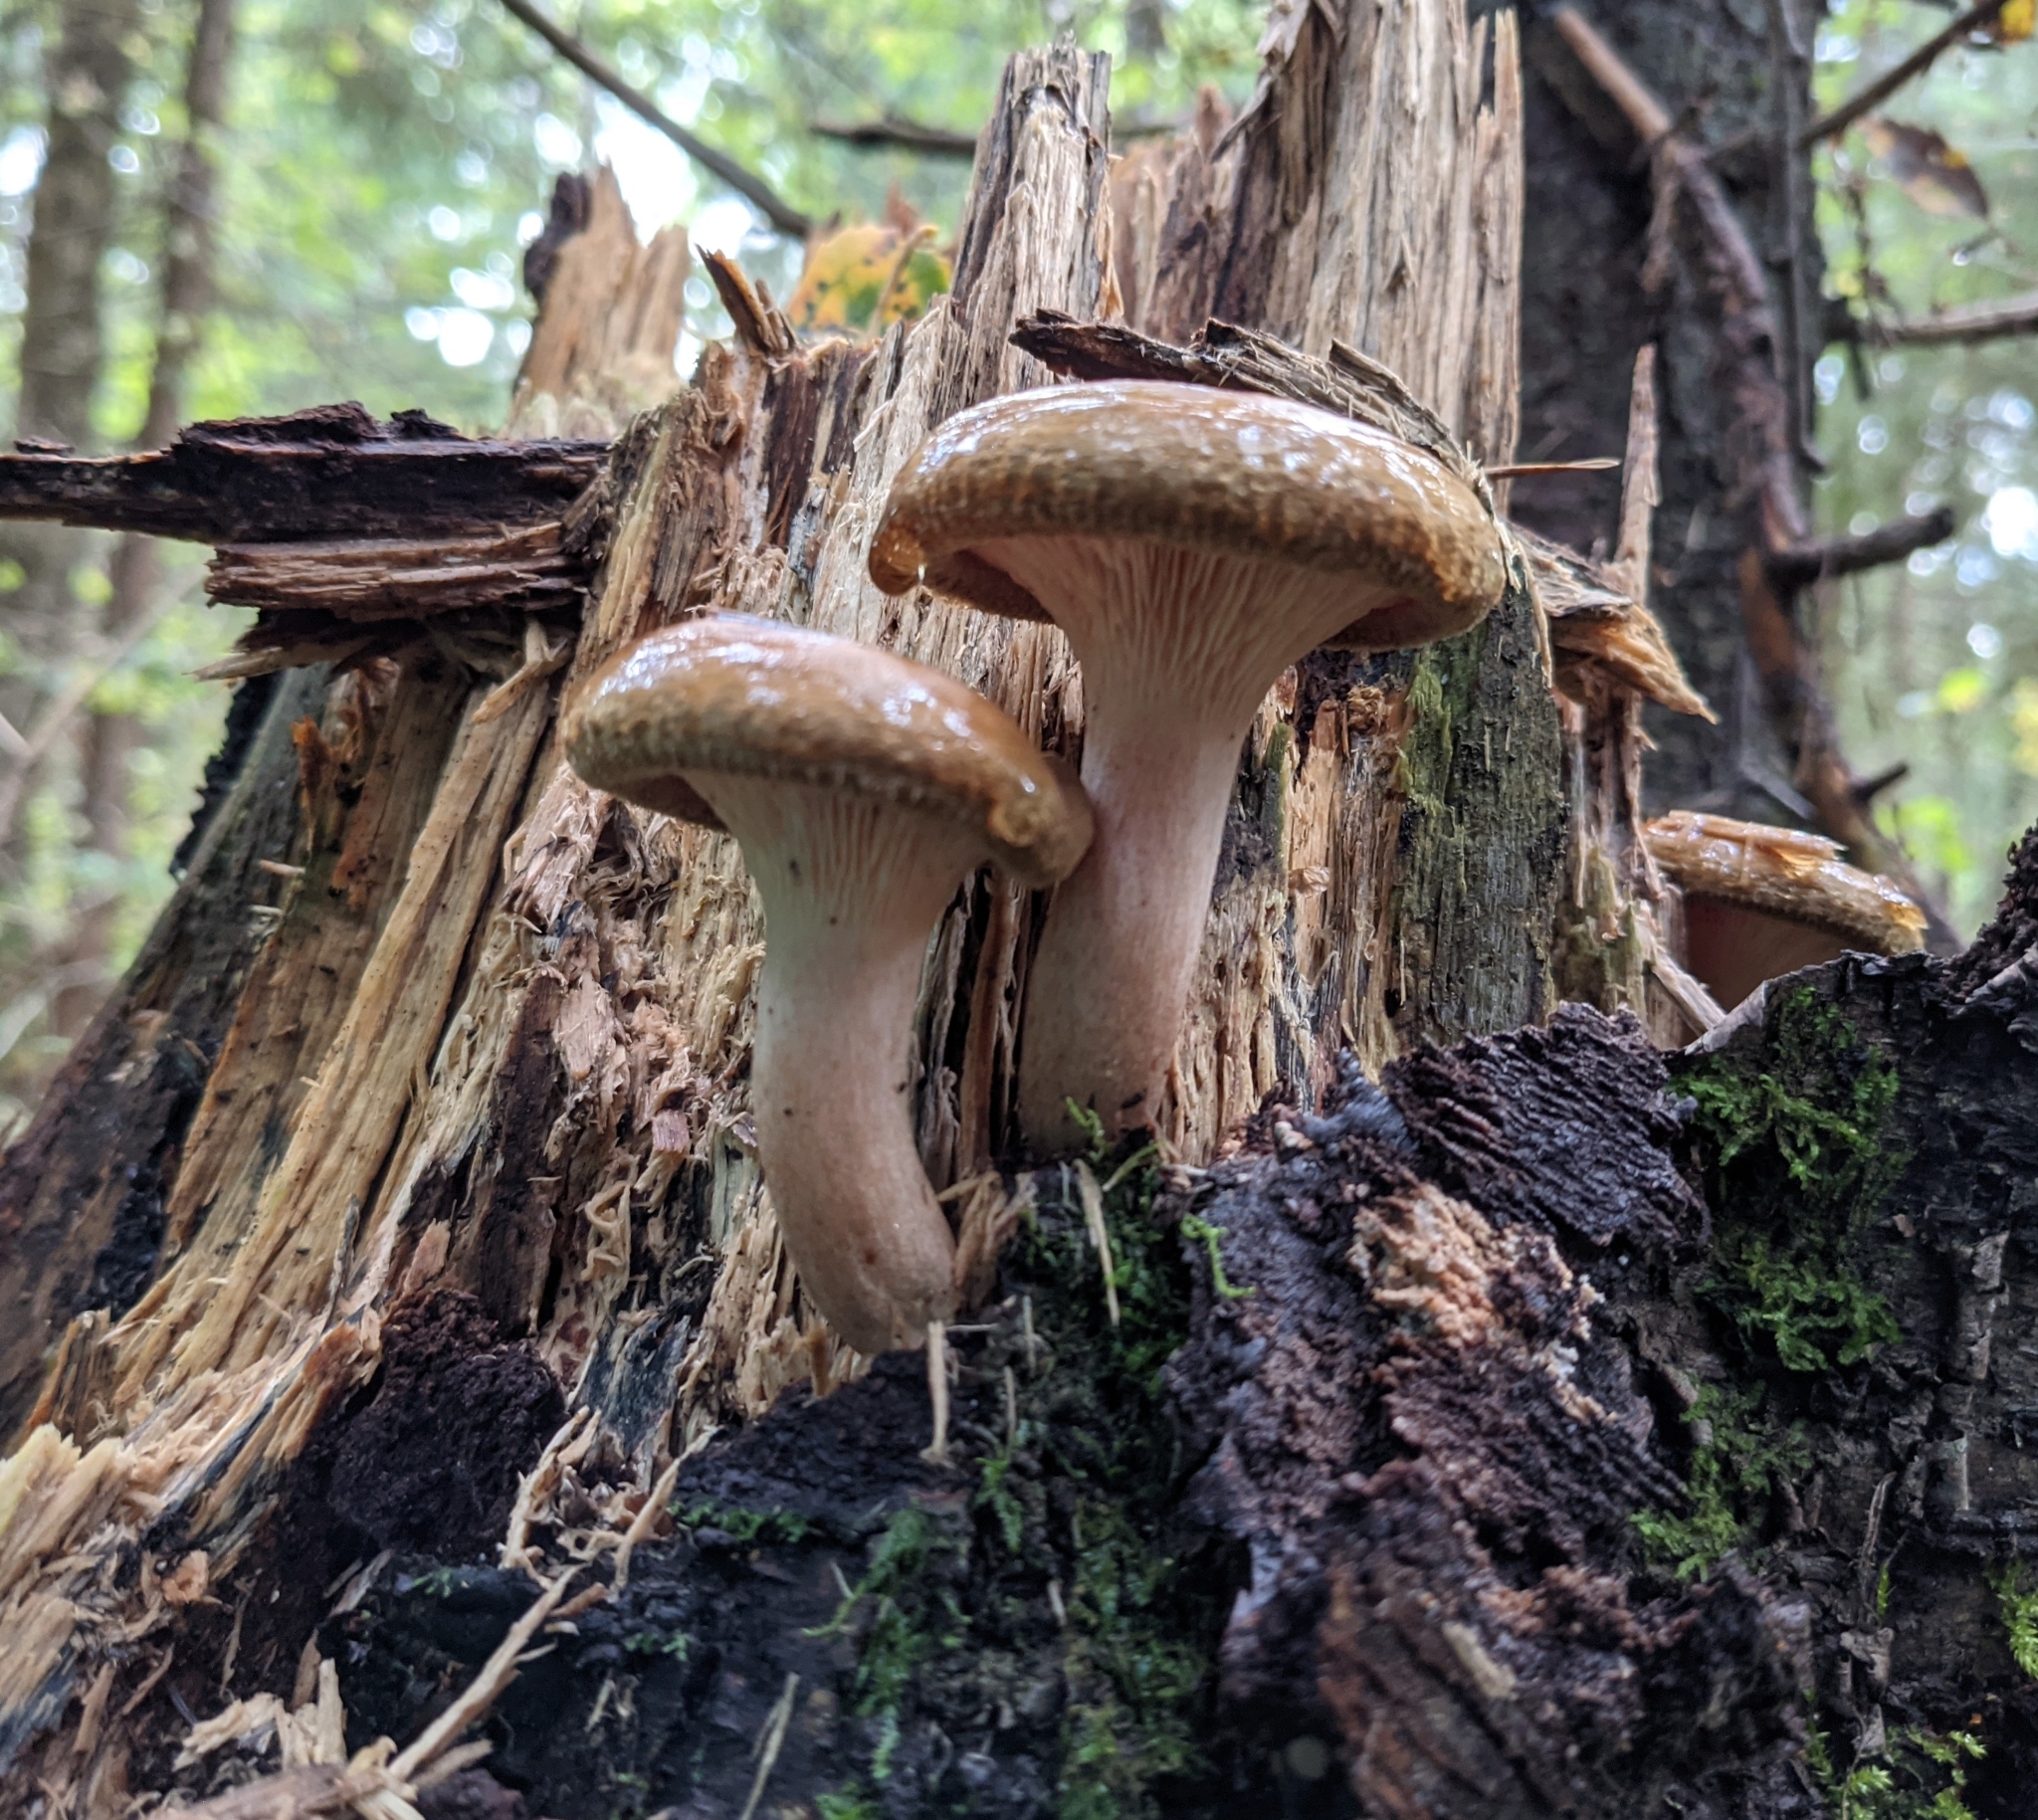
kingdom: Fungi
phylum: Basidiomycota
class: Agaricomycetes
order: Boletales
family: Paxillaceae
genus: Paxillus
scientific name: Paxillus involutus
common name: Brown roll rim
